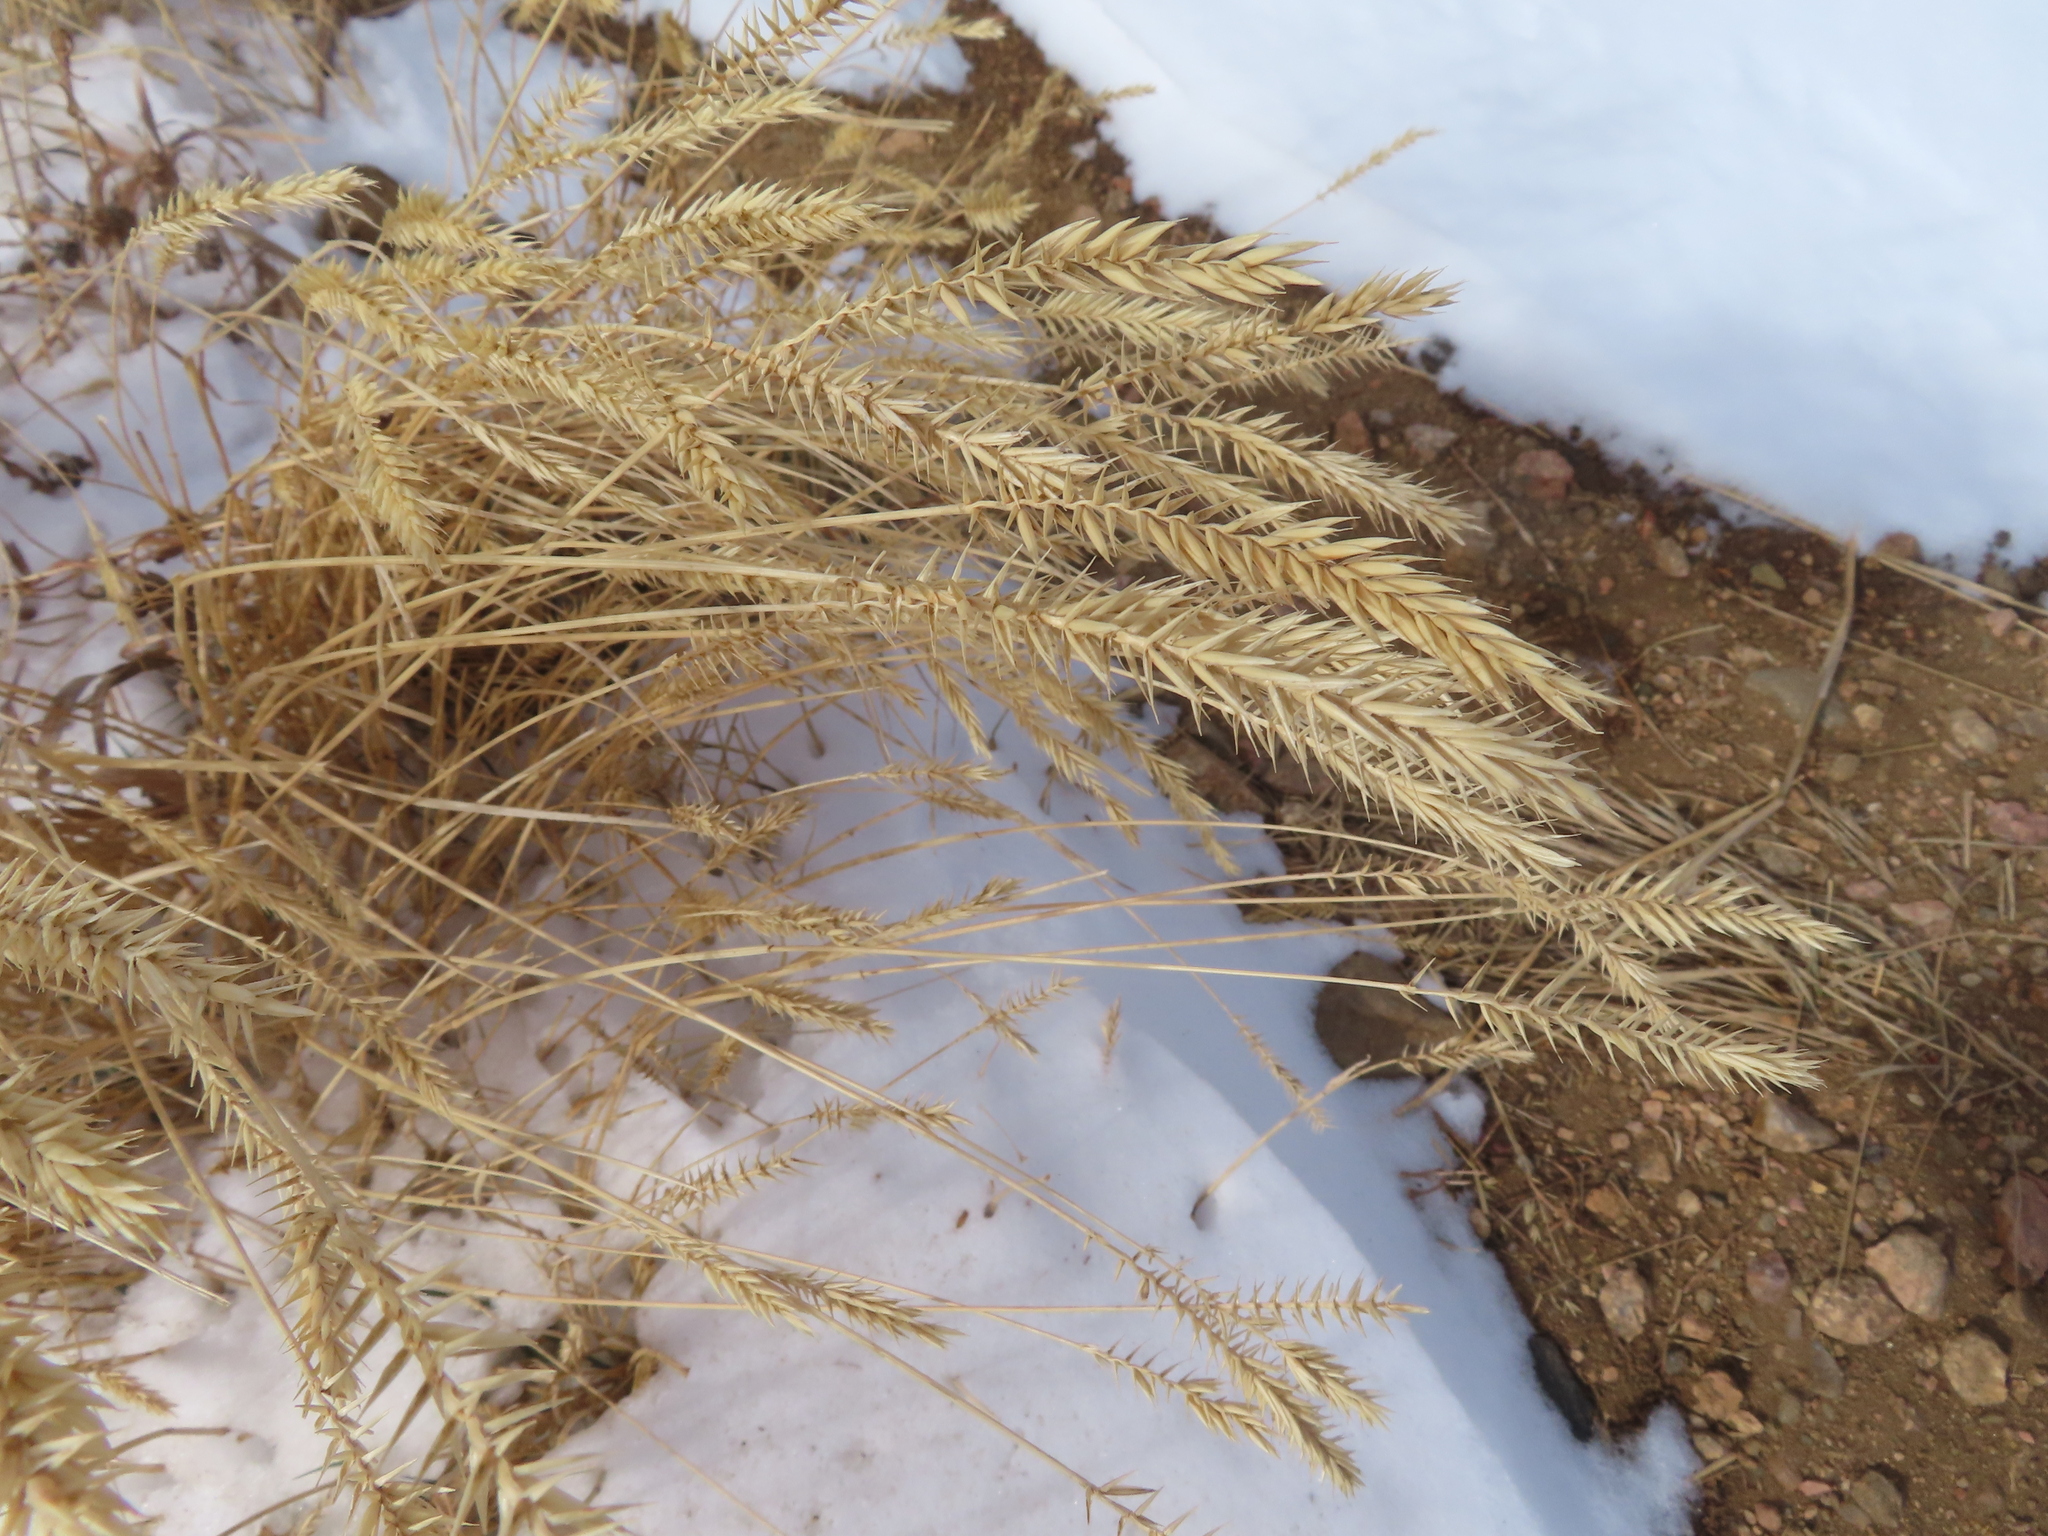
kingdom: Plantae
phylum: Tracheophyta
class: Liliopsida
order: Poales
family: Poaceae
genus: Agropyron
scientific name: Agropyron cristatum
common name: Crested wheatgrass
